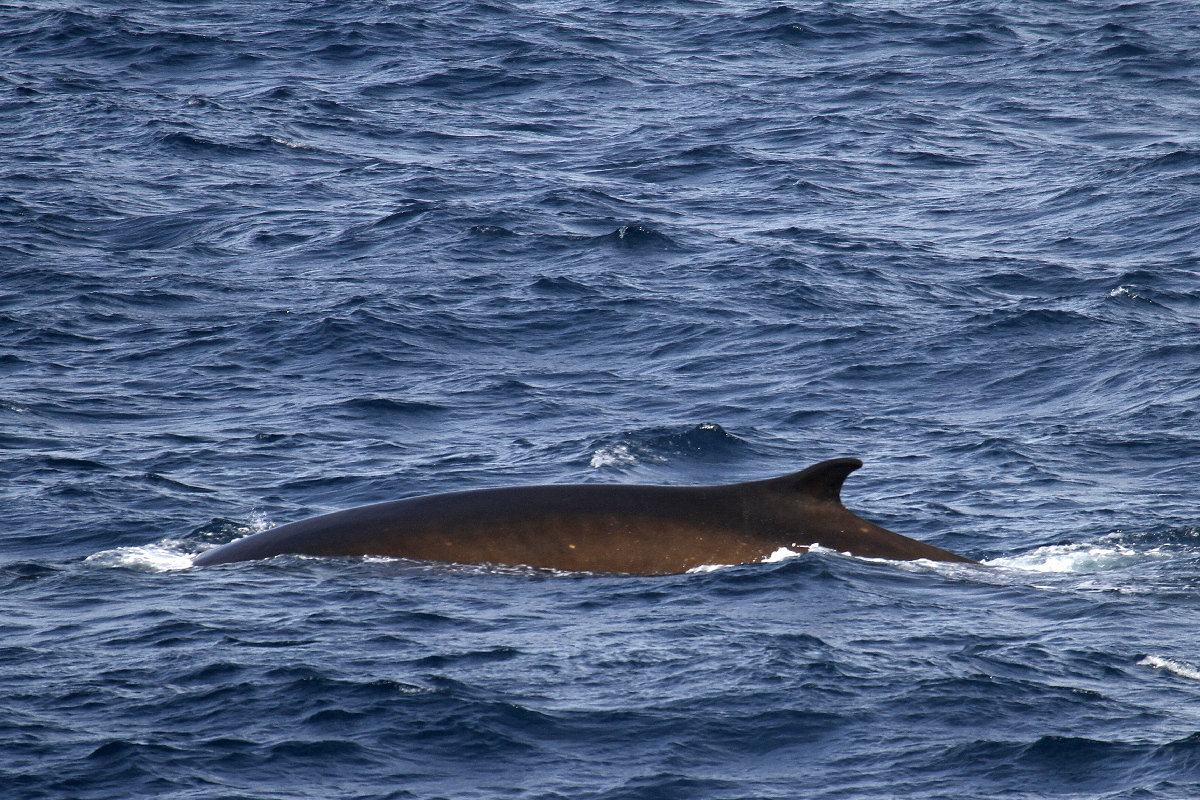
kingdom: Animalia
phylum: Chordata
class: Mammalia
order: Cetacea
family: Balaenopteridae
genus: Balaenoptera
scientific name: Balaenoptera physalus
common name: Fin whale
